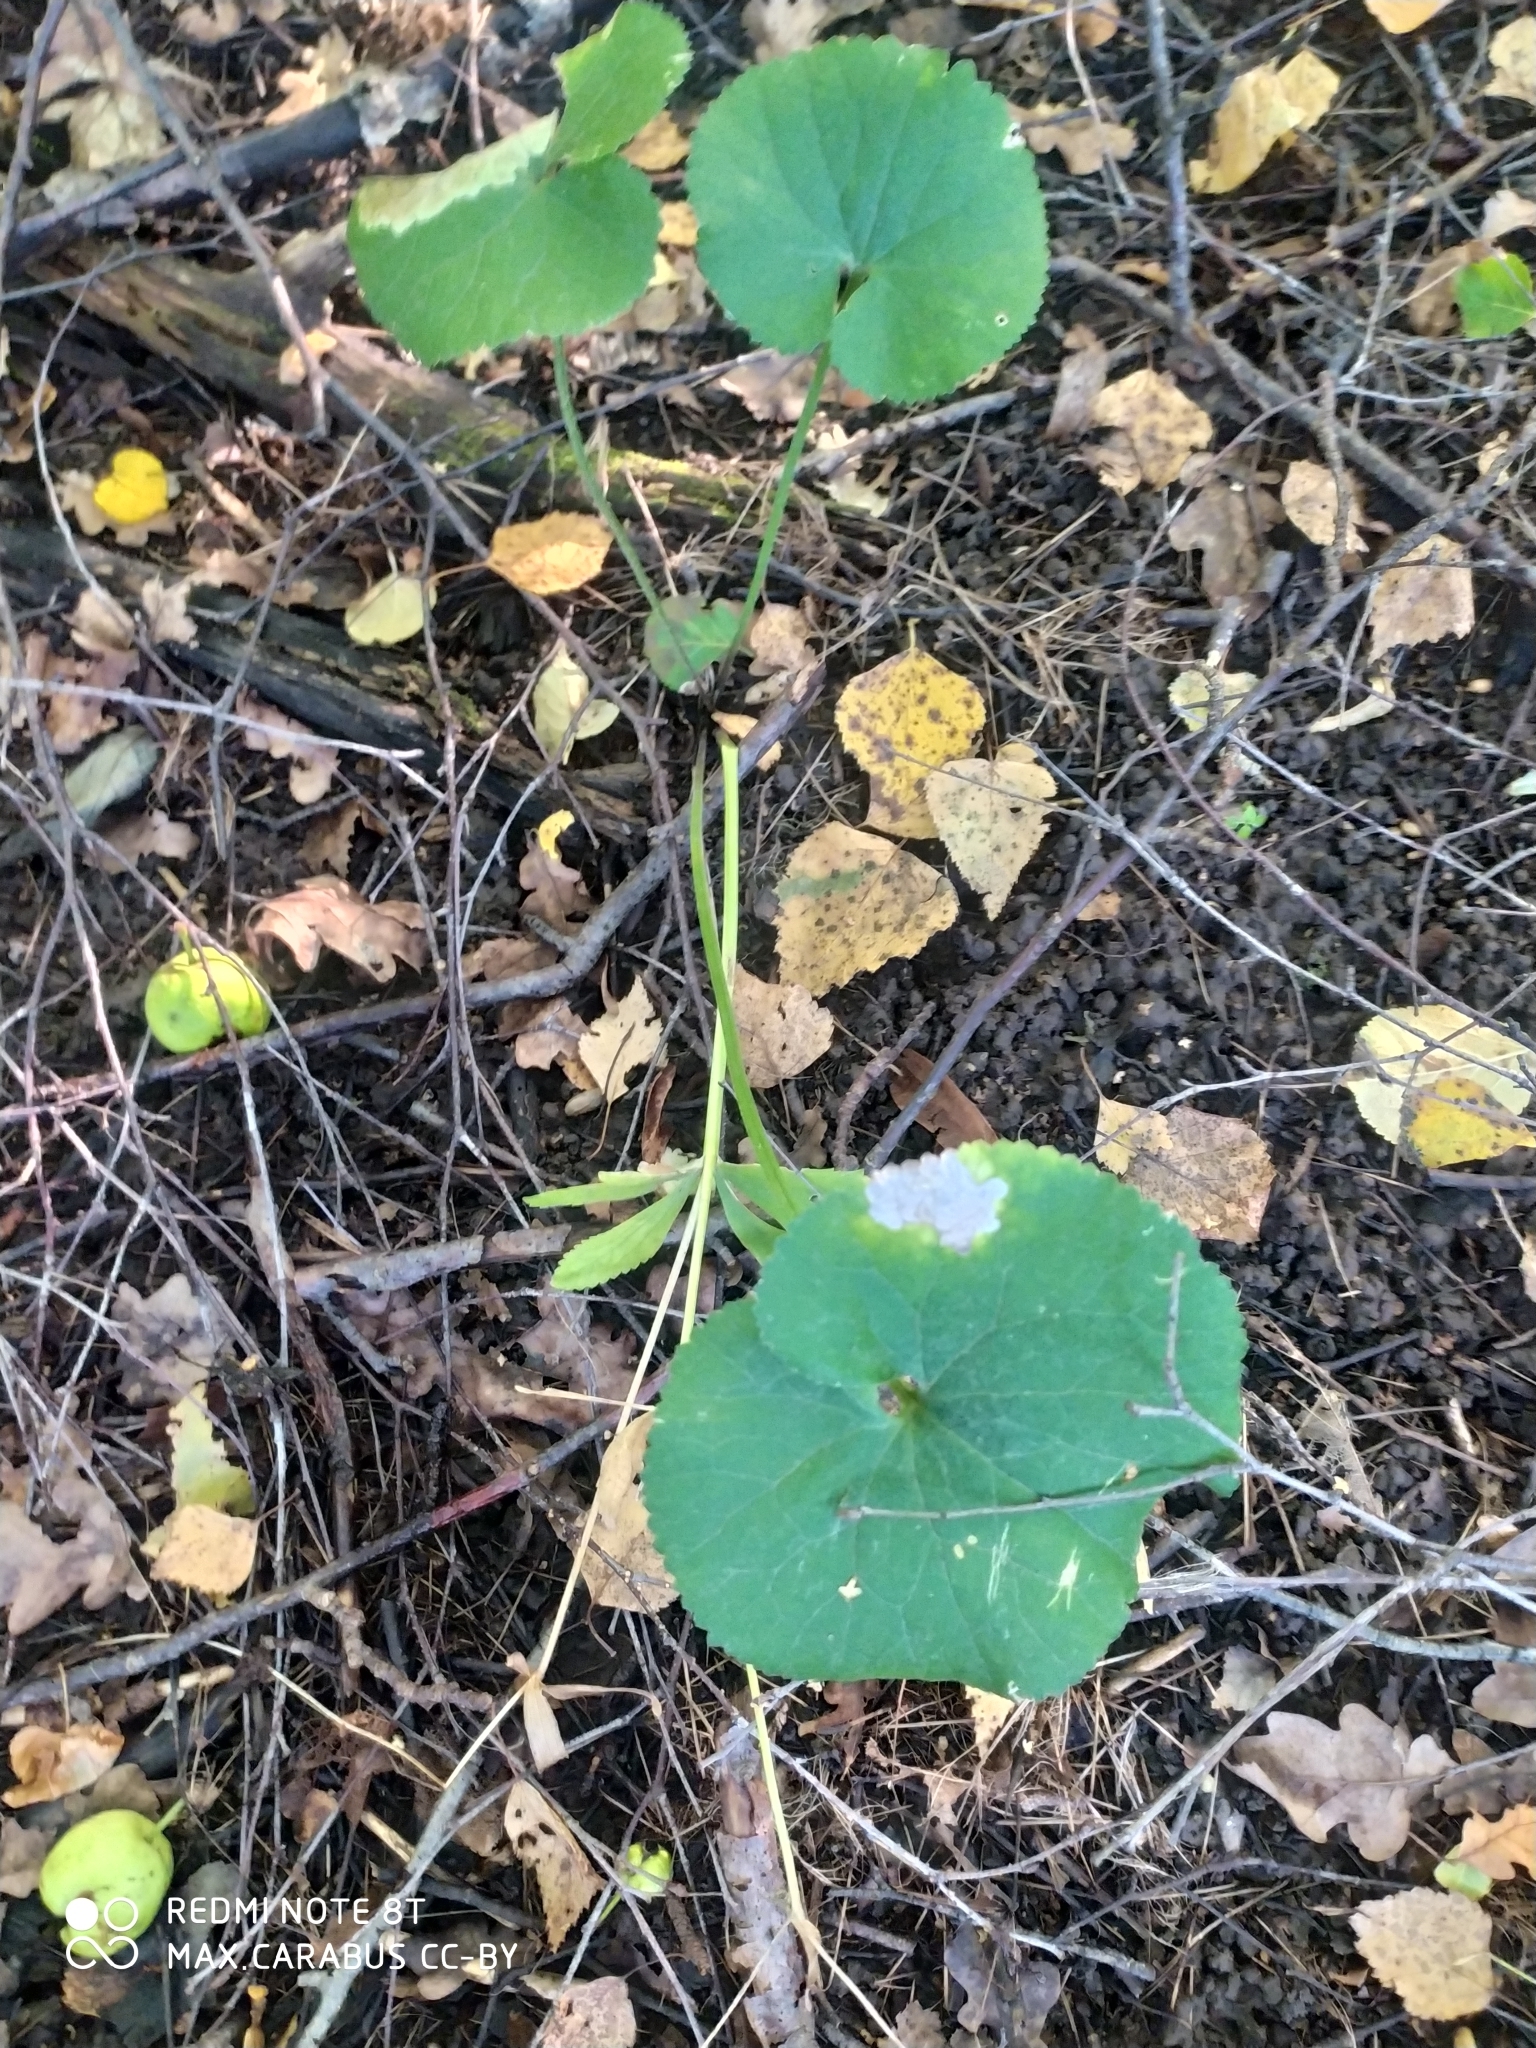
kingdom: Plantae
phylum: Tracheophyta
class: Magnoliopsida
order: Ranunculales
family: Ranunculaceae
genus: Ranunculus
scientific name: Ranunculus cassubicus
